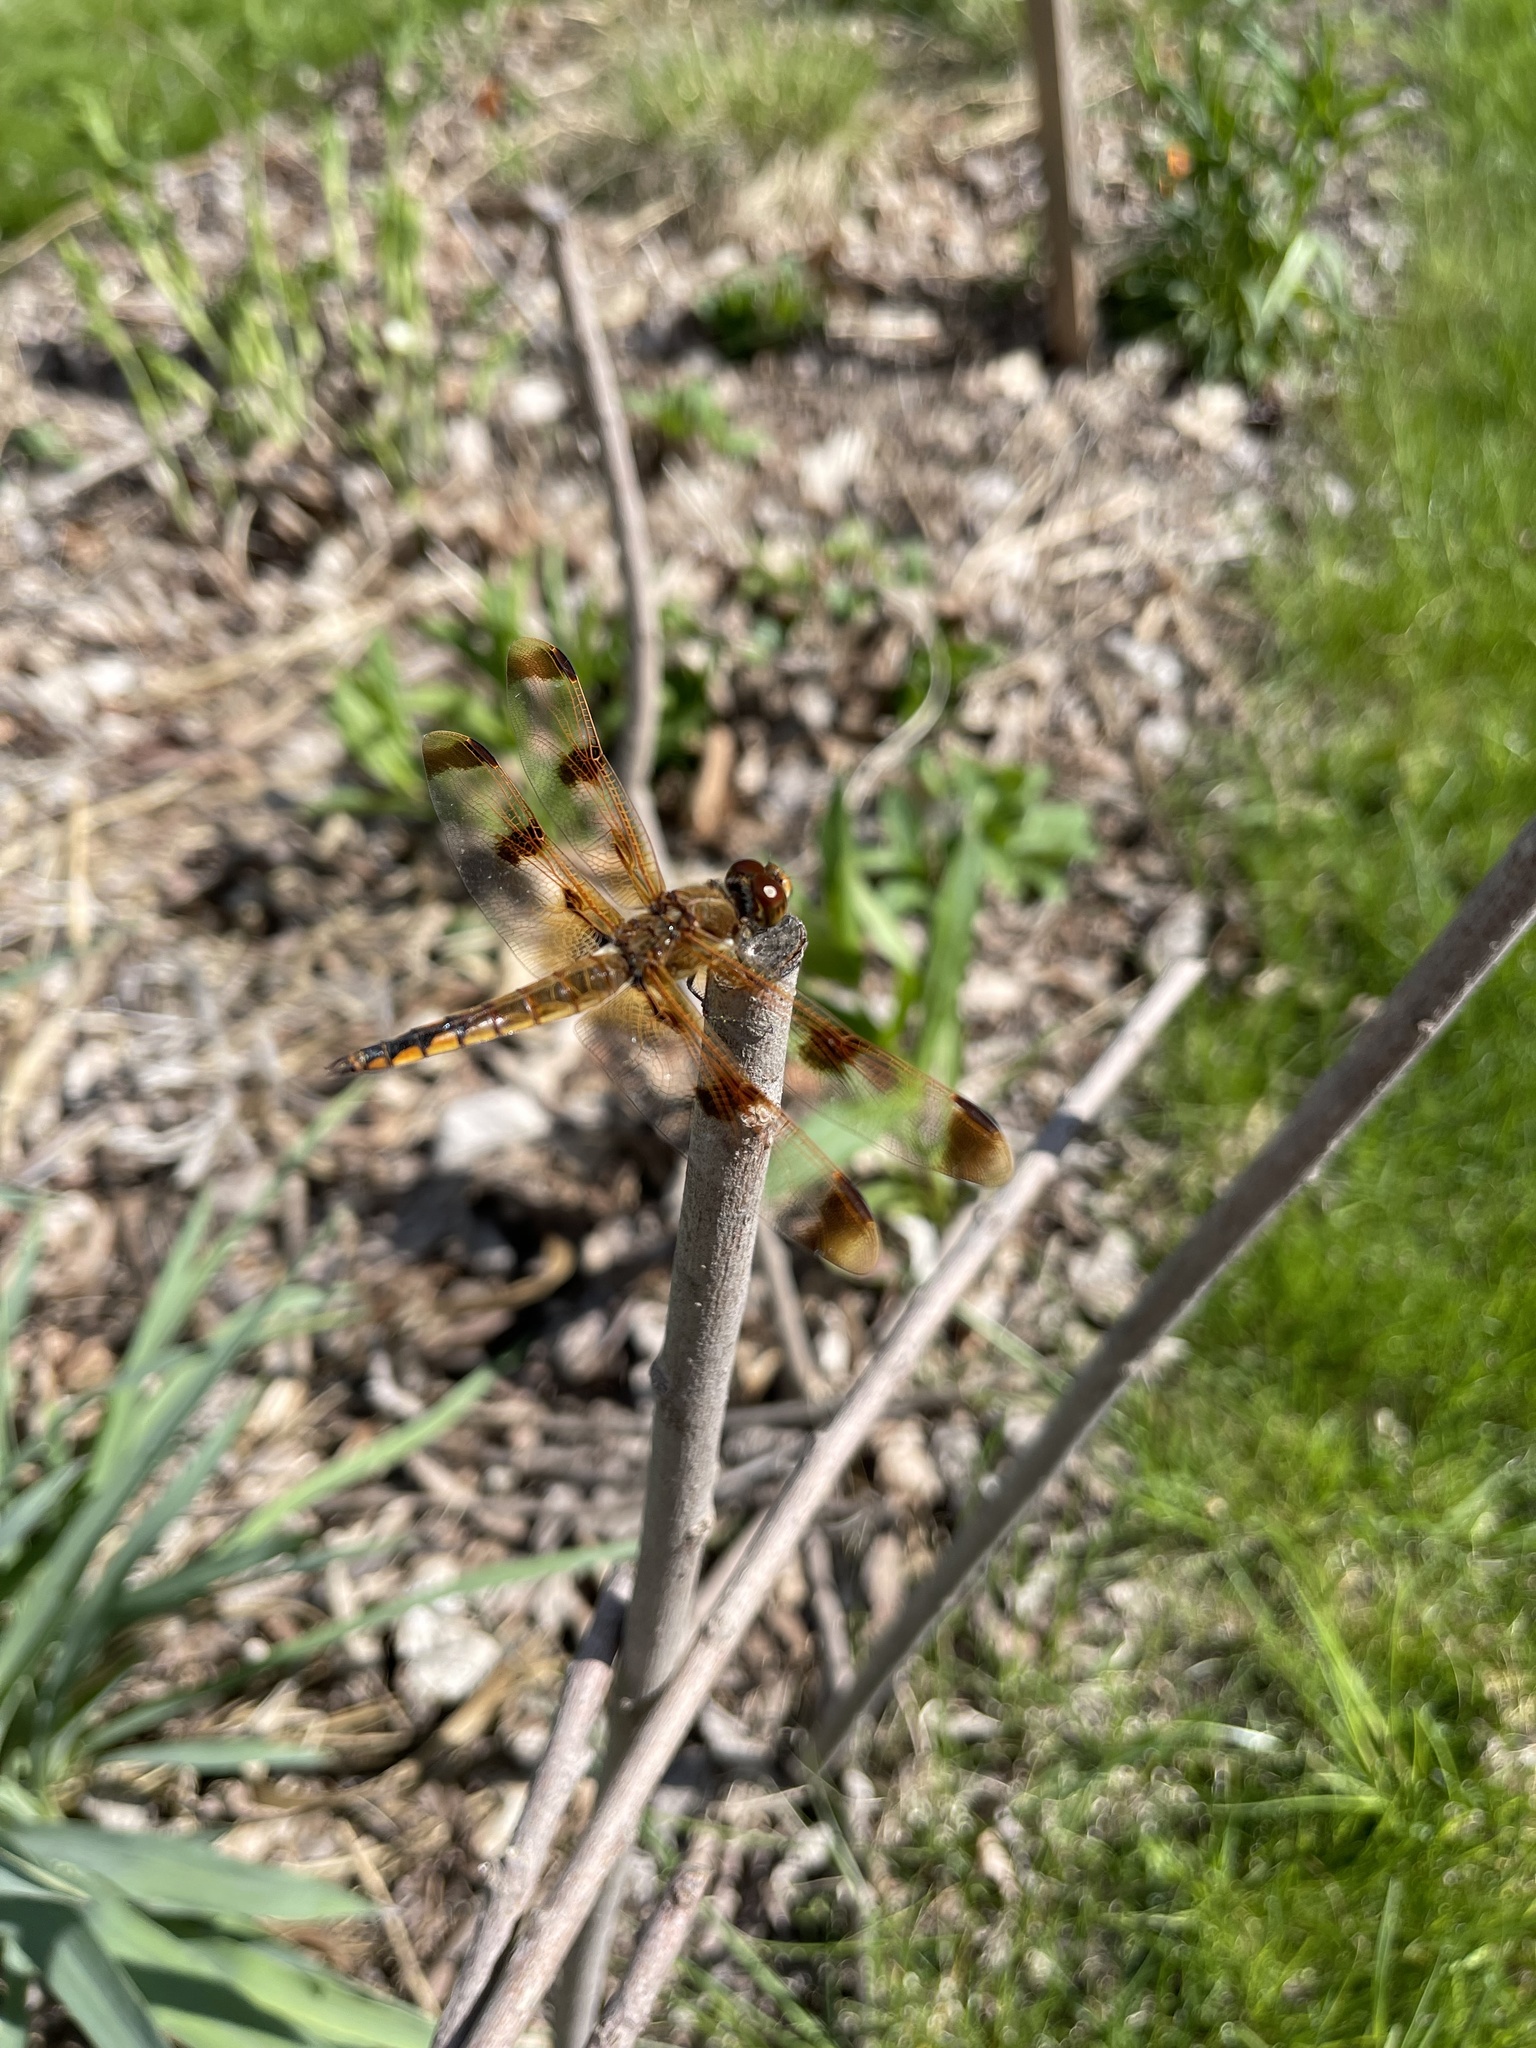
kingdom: Animalia
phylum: Arthropoda
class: Insecta
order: Odonata
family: Libellulidae
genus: Libellula
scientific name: Libellula semifasciata
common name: Painted skimmer
